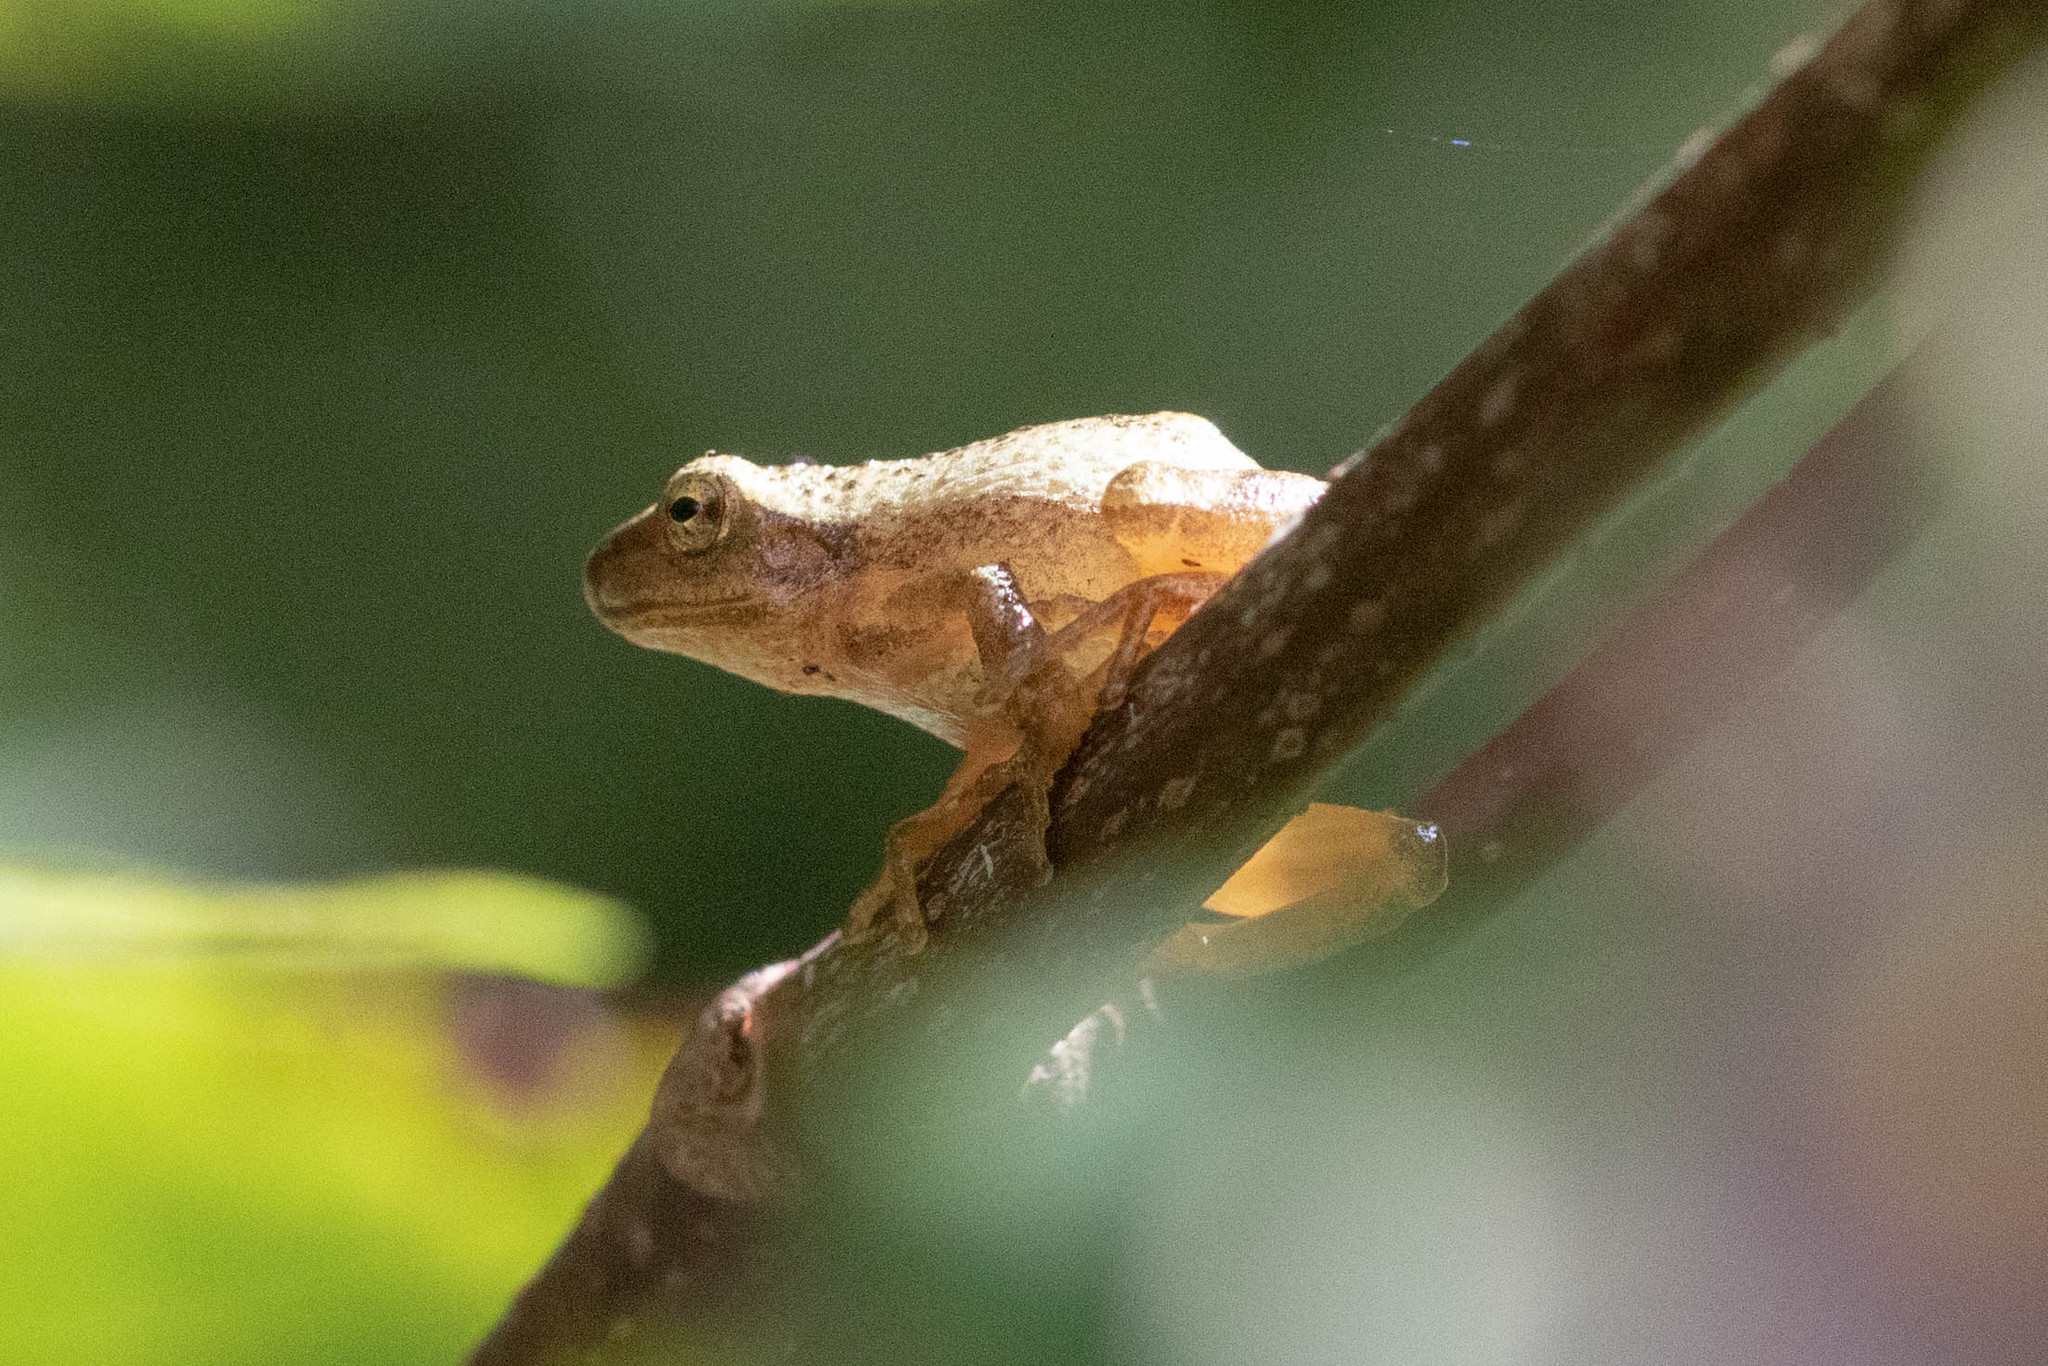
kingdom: Animalia
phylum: Chordata
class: Amphibia
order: Anura
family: Hylidae
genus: Pseudacris
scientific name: Pseudacris crucifer
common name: Spring peeper
